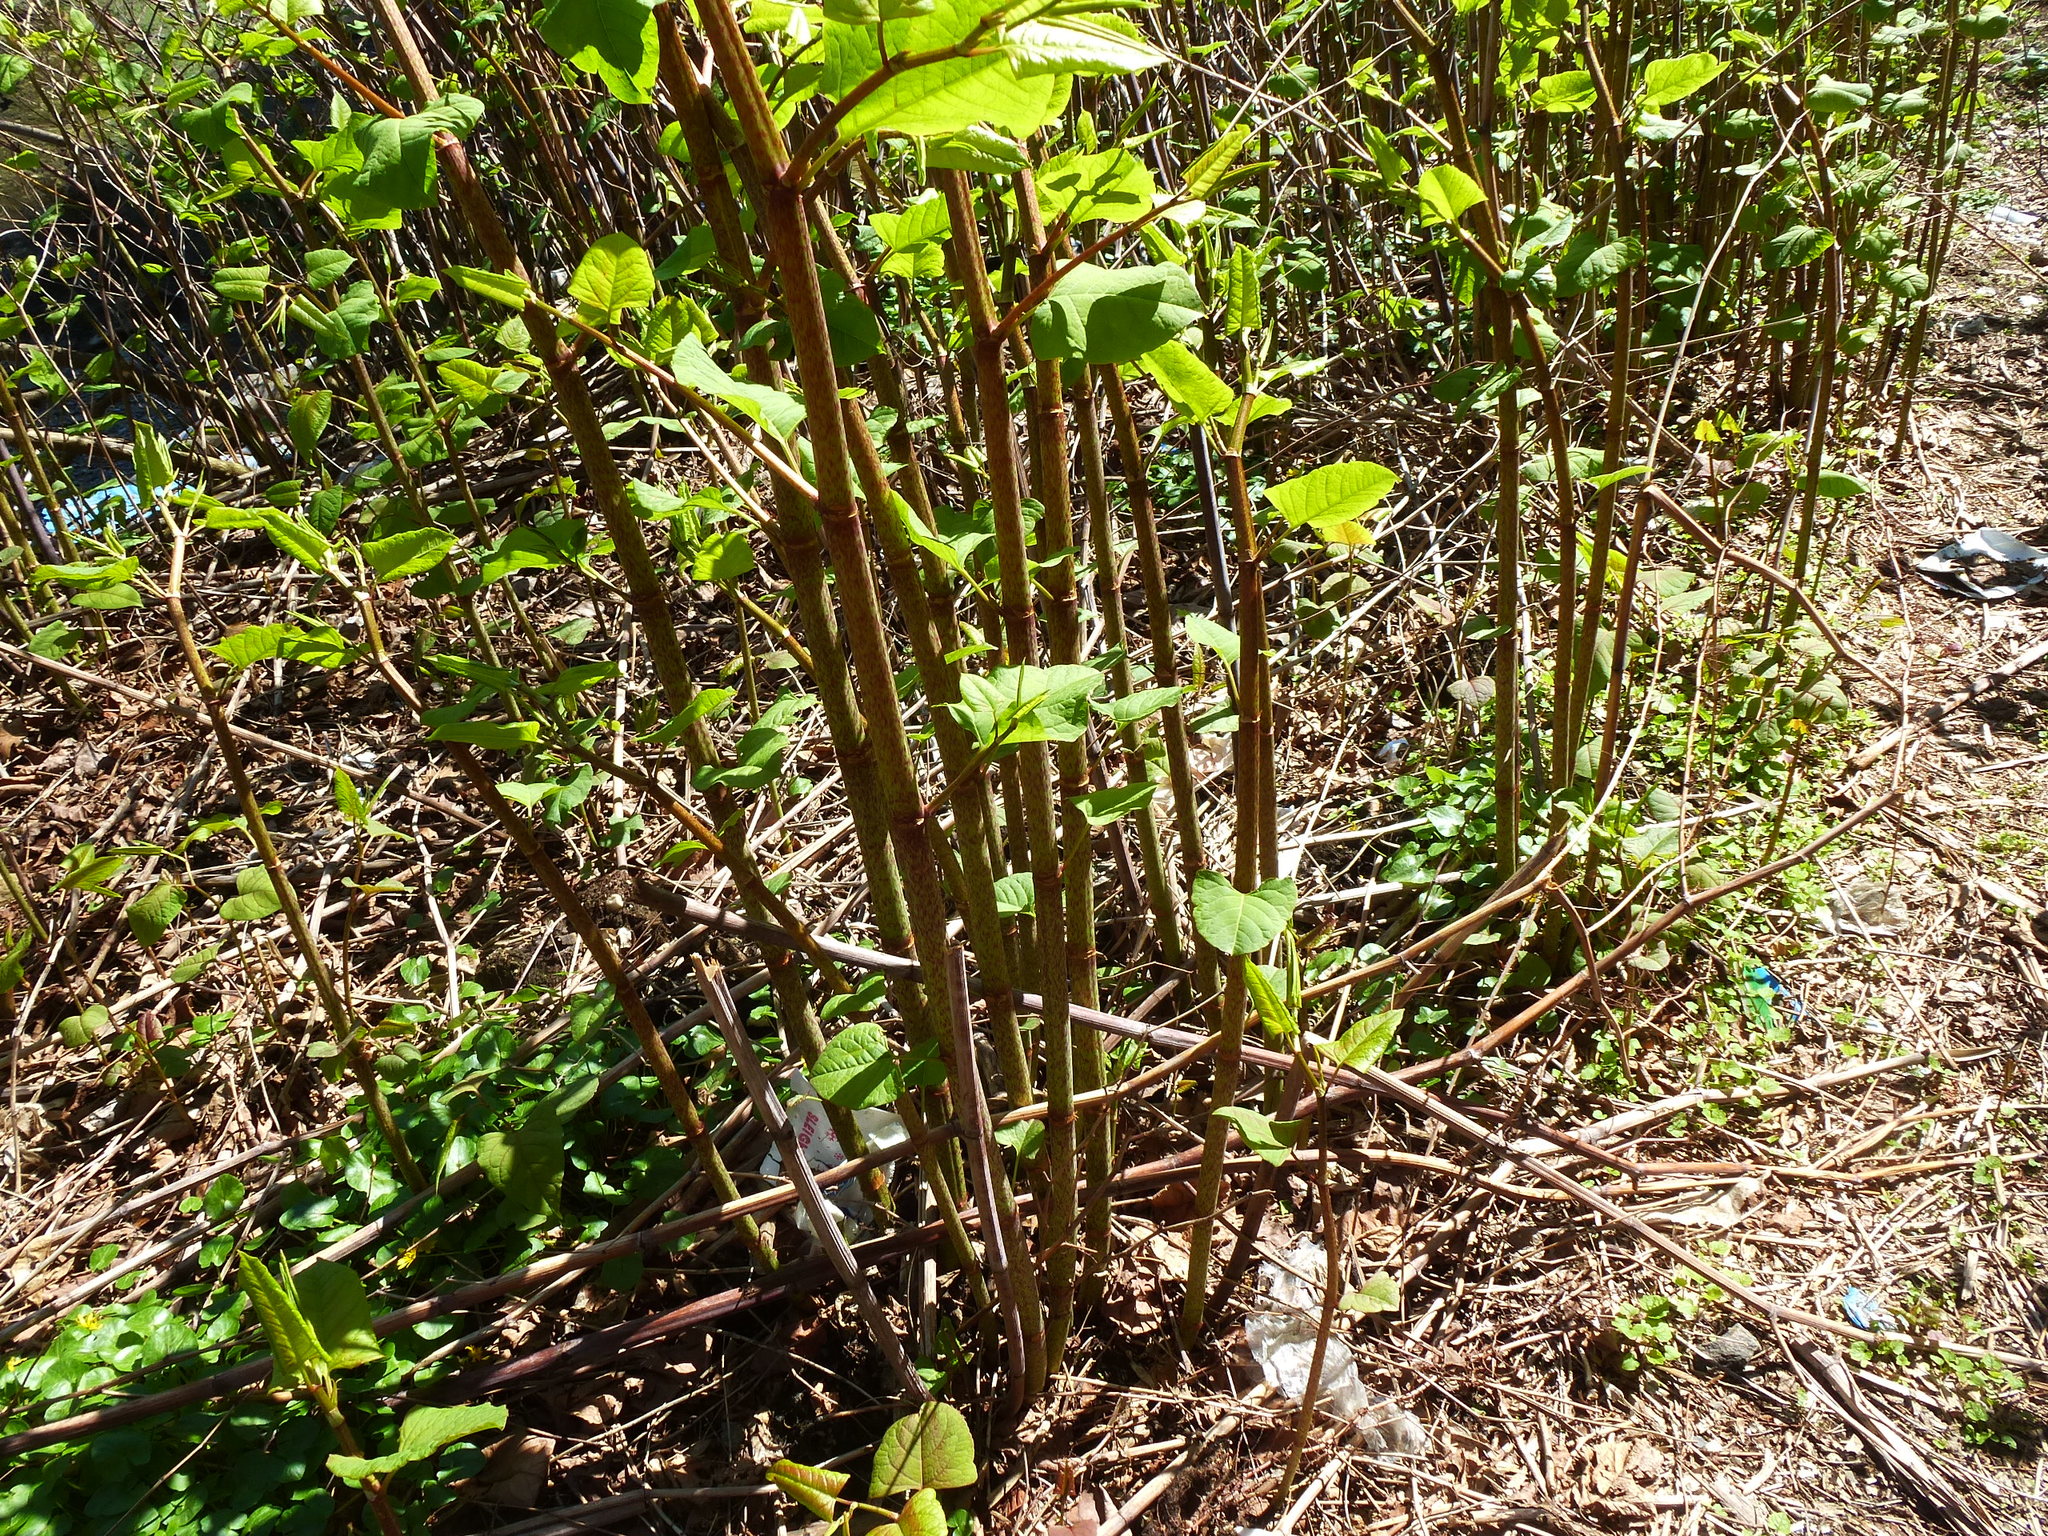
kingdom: Plantae
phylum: Tracheophyta
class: Magnoliopsida
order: Caryophyllales
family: Polygonaceae
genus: Reynoutria
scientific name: Reynoutria japonica
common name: Japanese knotweed
